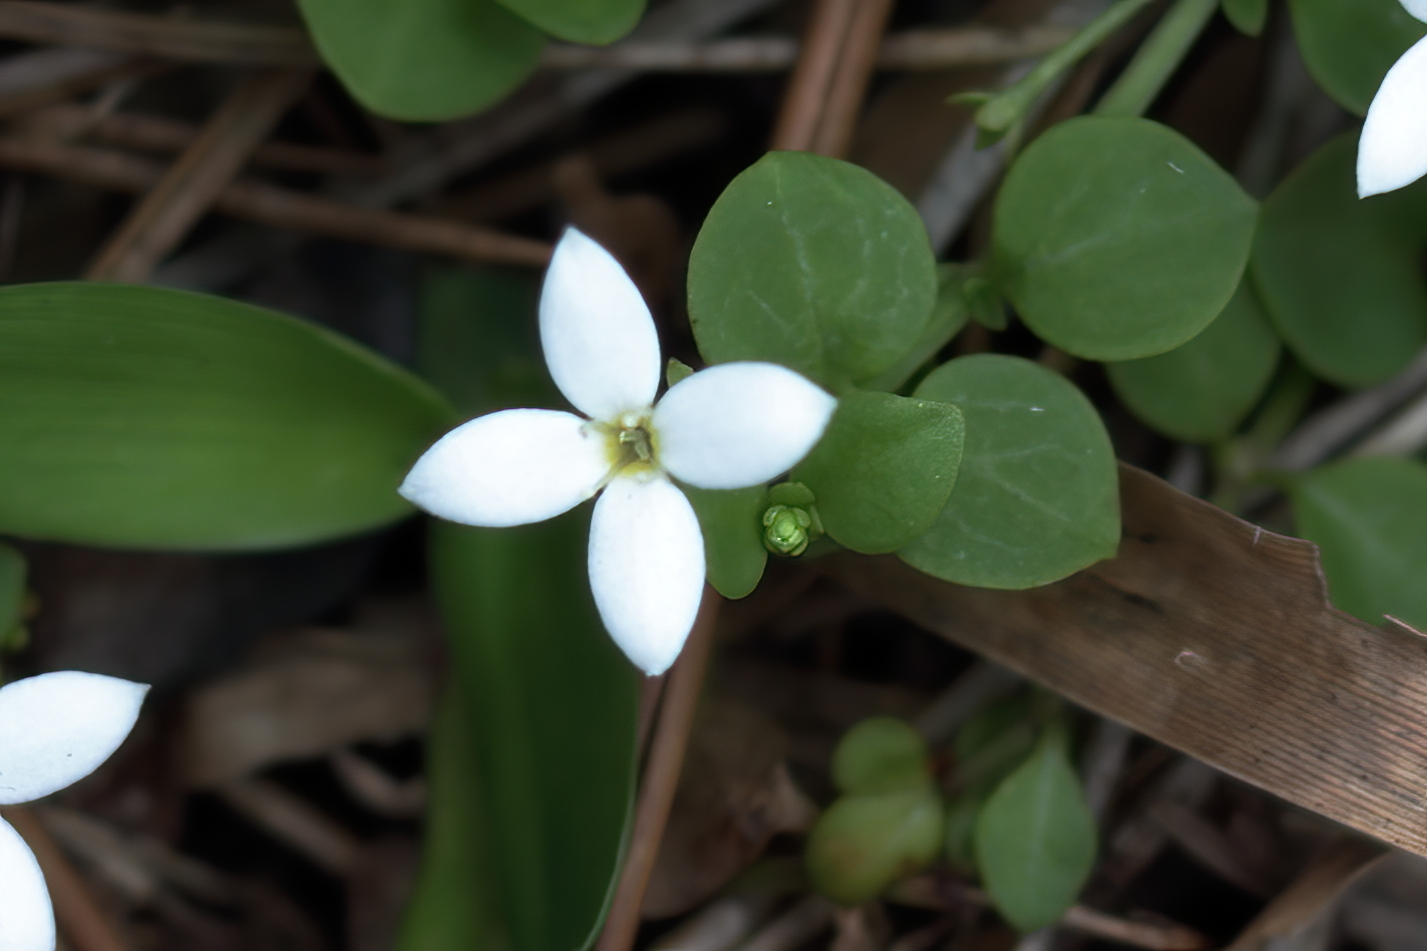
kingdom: Plantae
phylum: Tracheophyta
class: Magnoliopsida
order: Gentianales
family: Rubiaceae
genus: Houstonia
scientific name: Houstonia procumbens
